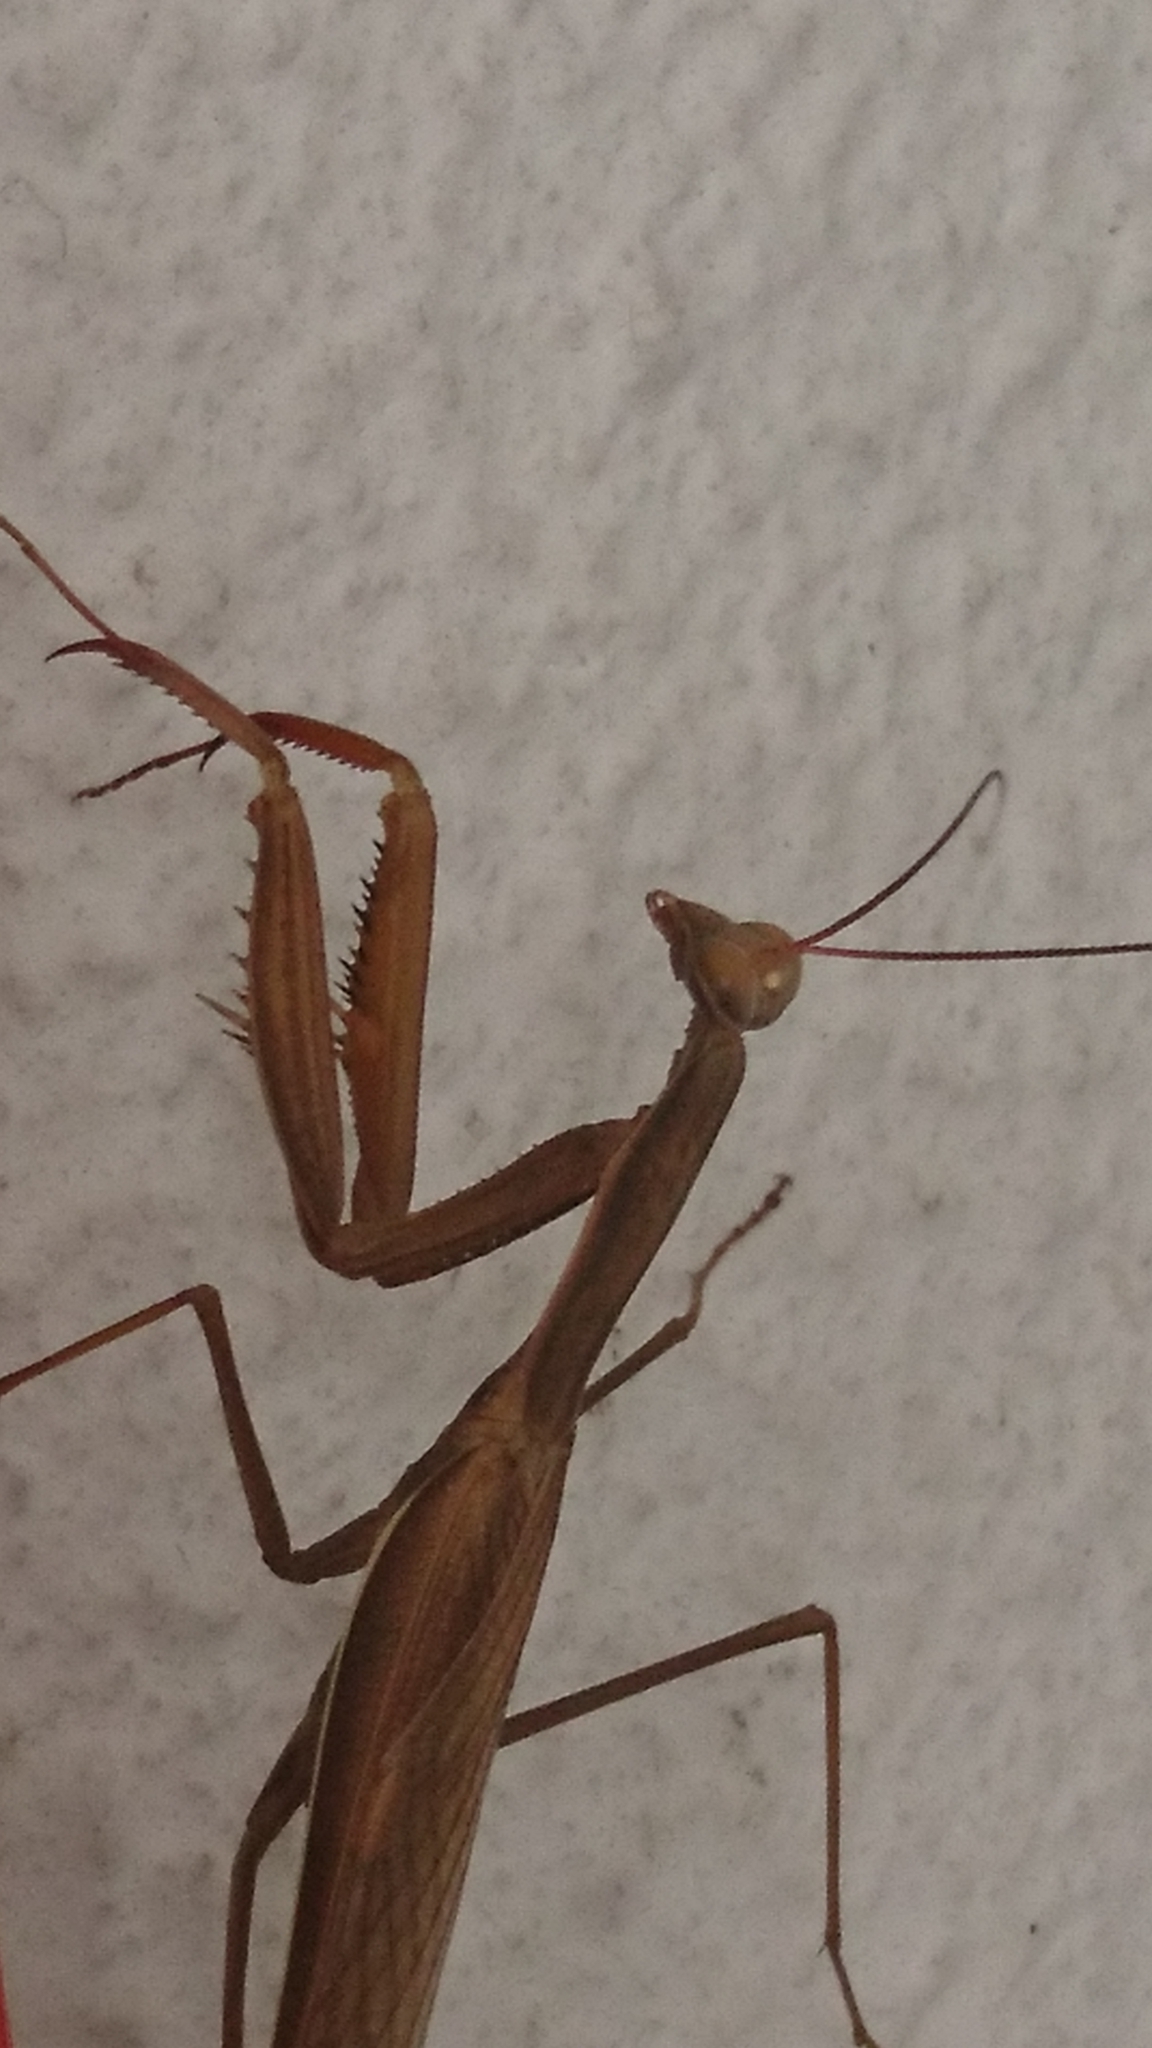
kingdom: Animalia
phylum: Arthropoda
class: Insecta
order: Mantodea
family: Mantidae
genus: Mantis
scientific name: Mantis religiosa
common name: Praying mantis
